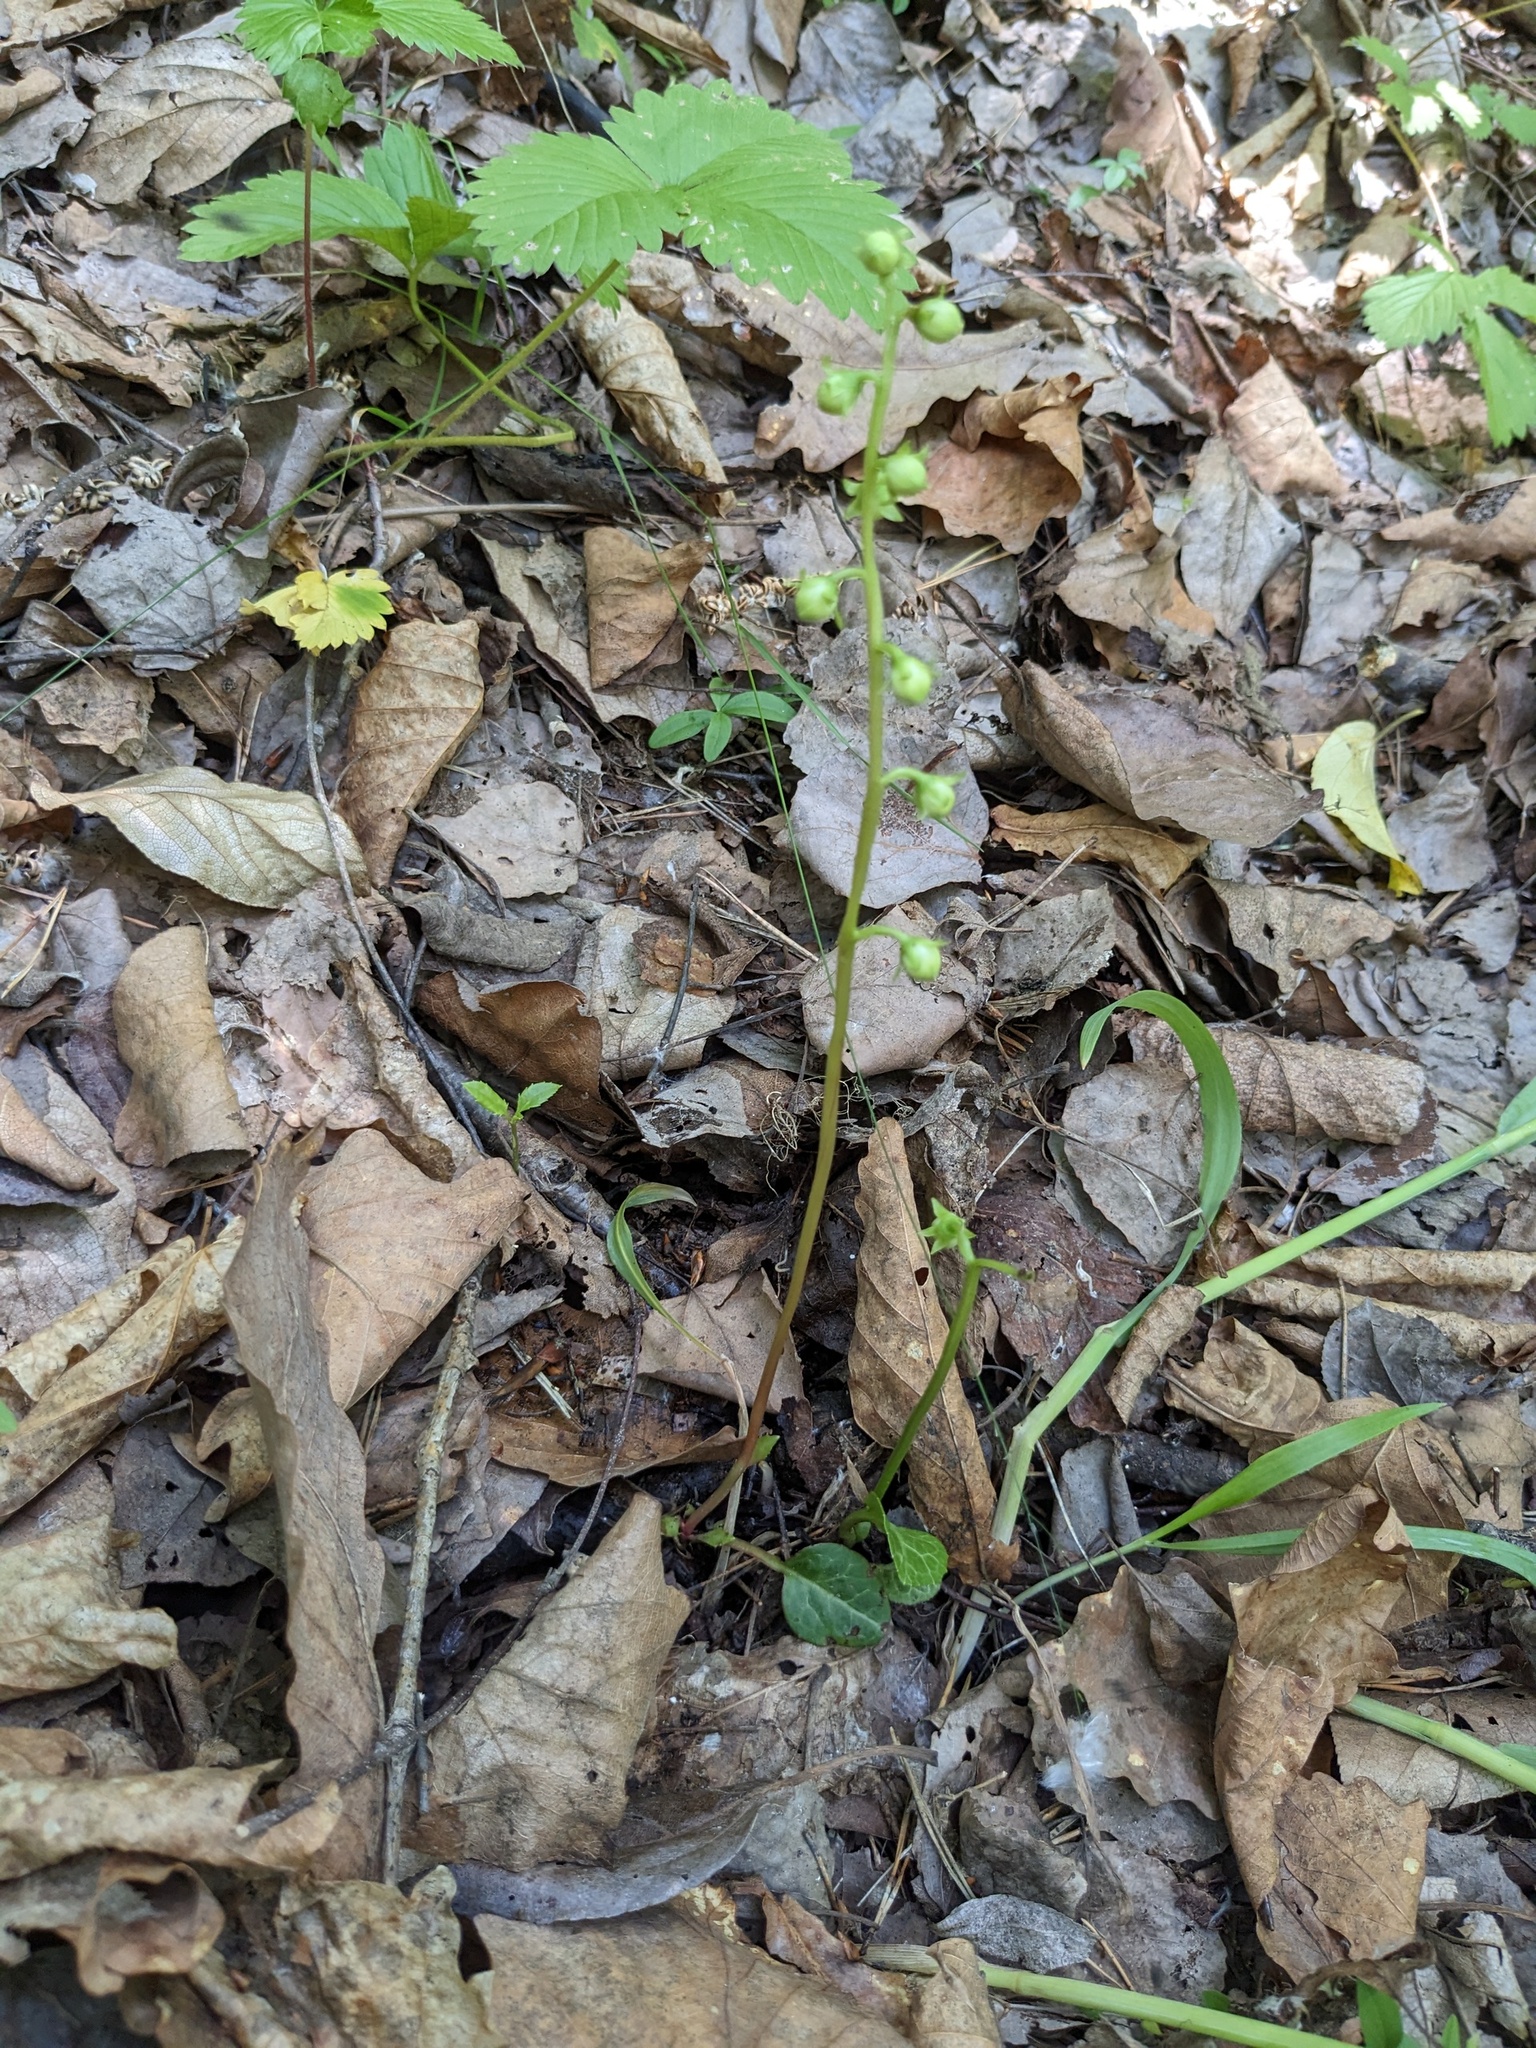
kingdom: Plantae
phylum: Tracheophyta
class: Magnoliopsida
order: Ericales
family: Ericaceae
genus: Pyrola
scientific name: Pyrola japonica
